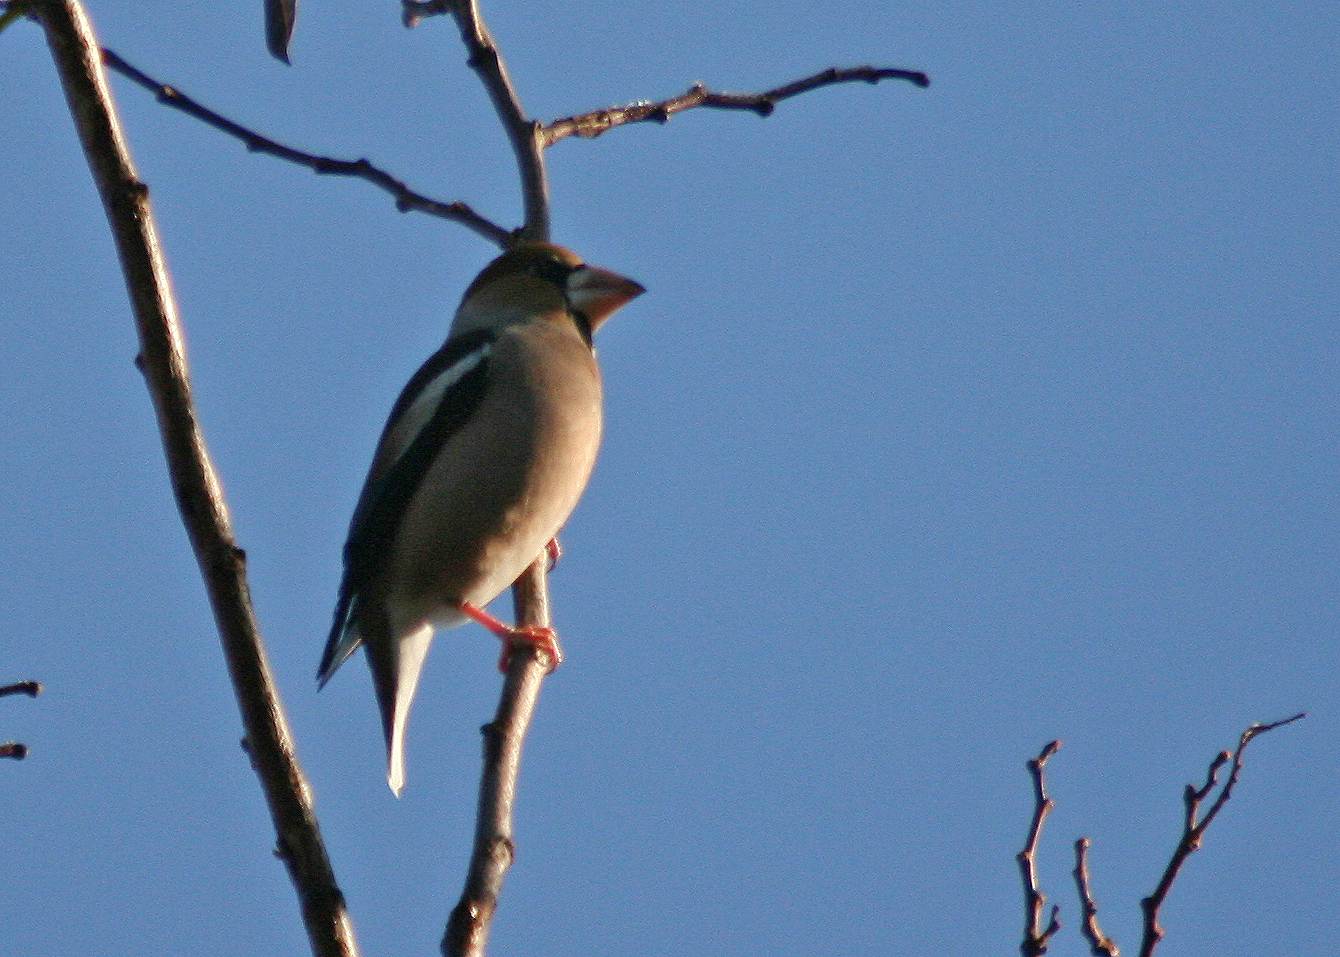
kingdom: Animalia
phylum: Chordata
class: Aves
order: Passeriformes
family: Fringillidae
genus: Coccothraustes
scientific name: Coccothraustes coccothraustes
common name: Hawfinch
